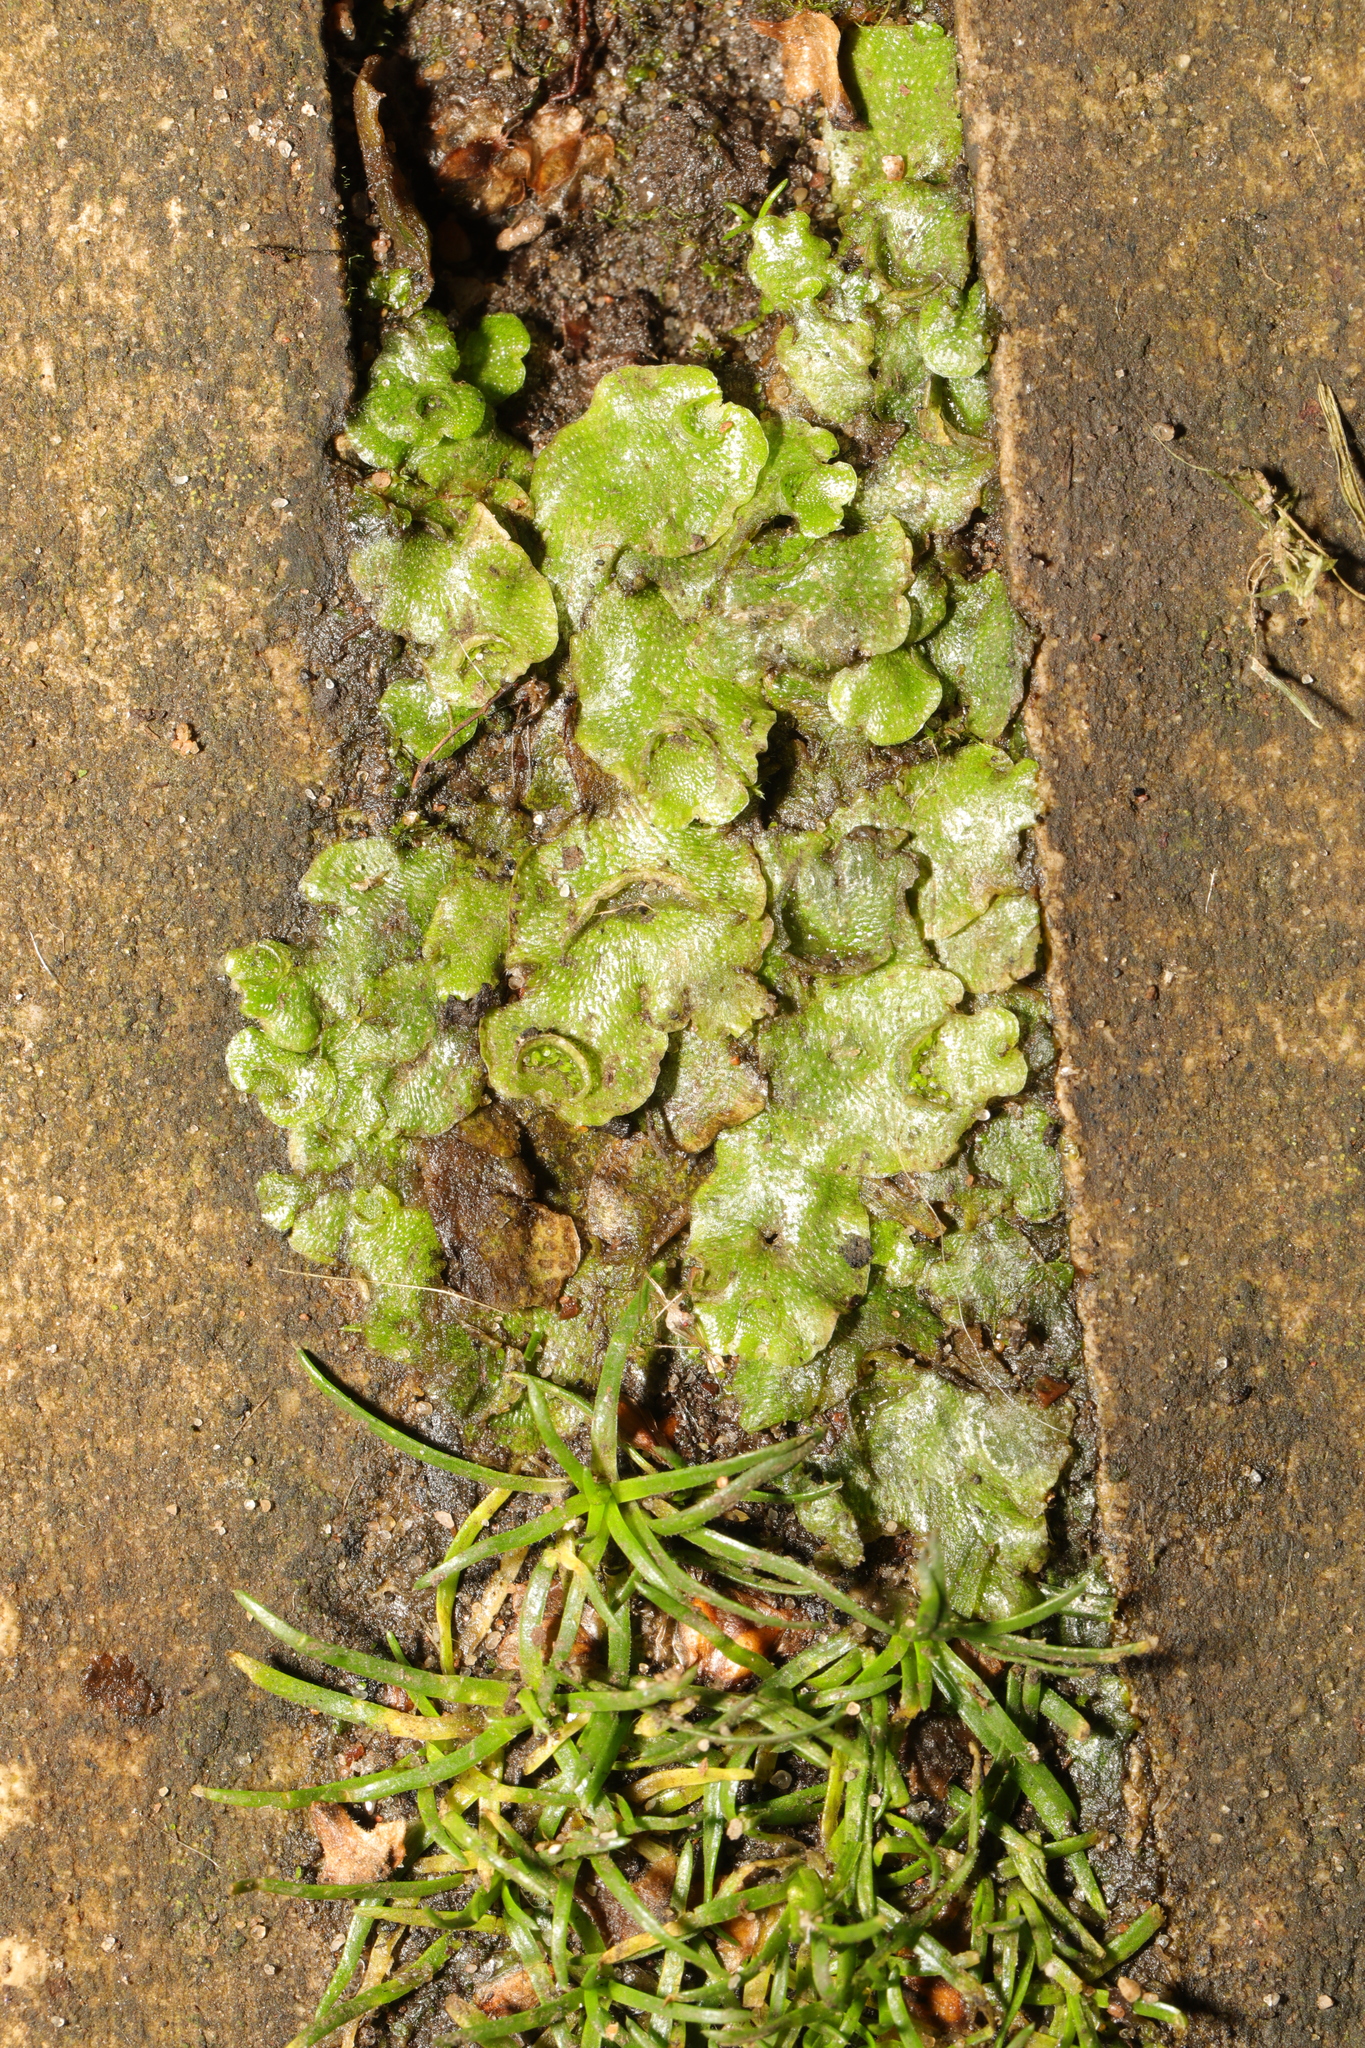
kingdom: Plantae
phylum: Marchantiophyta
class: Marchantiopsida
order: Lunulariales
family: Lunulariaceae
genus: Lunularia
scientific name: Lunularia cruciata
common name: Crescent-cup liverwort
